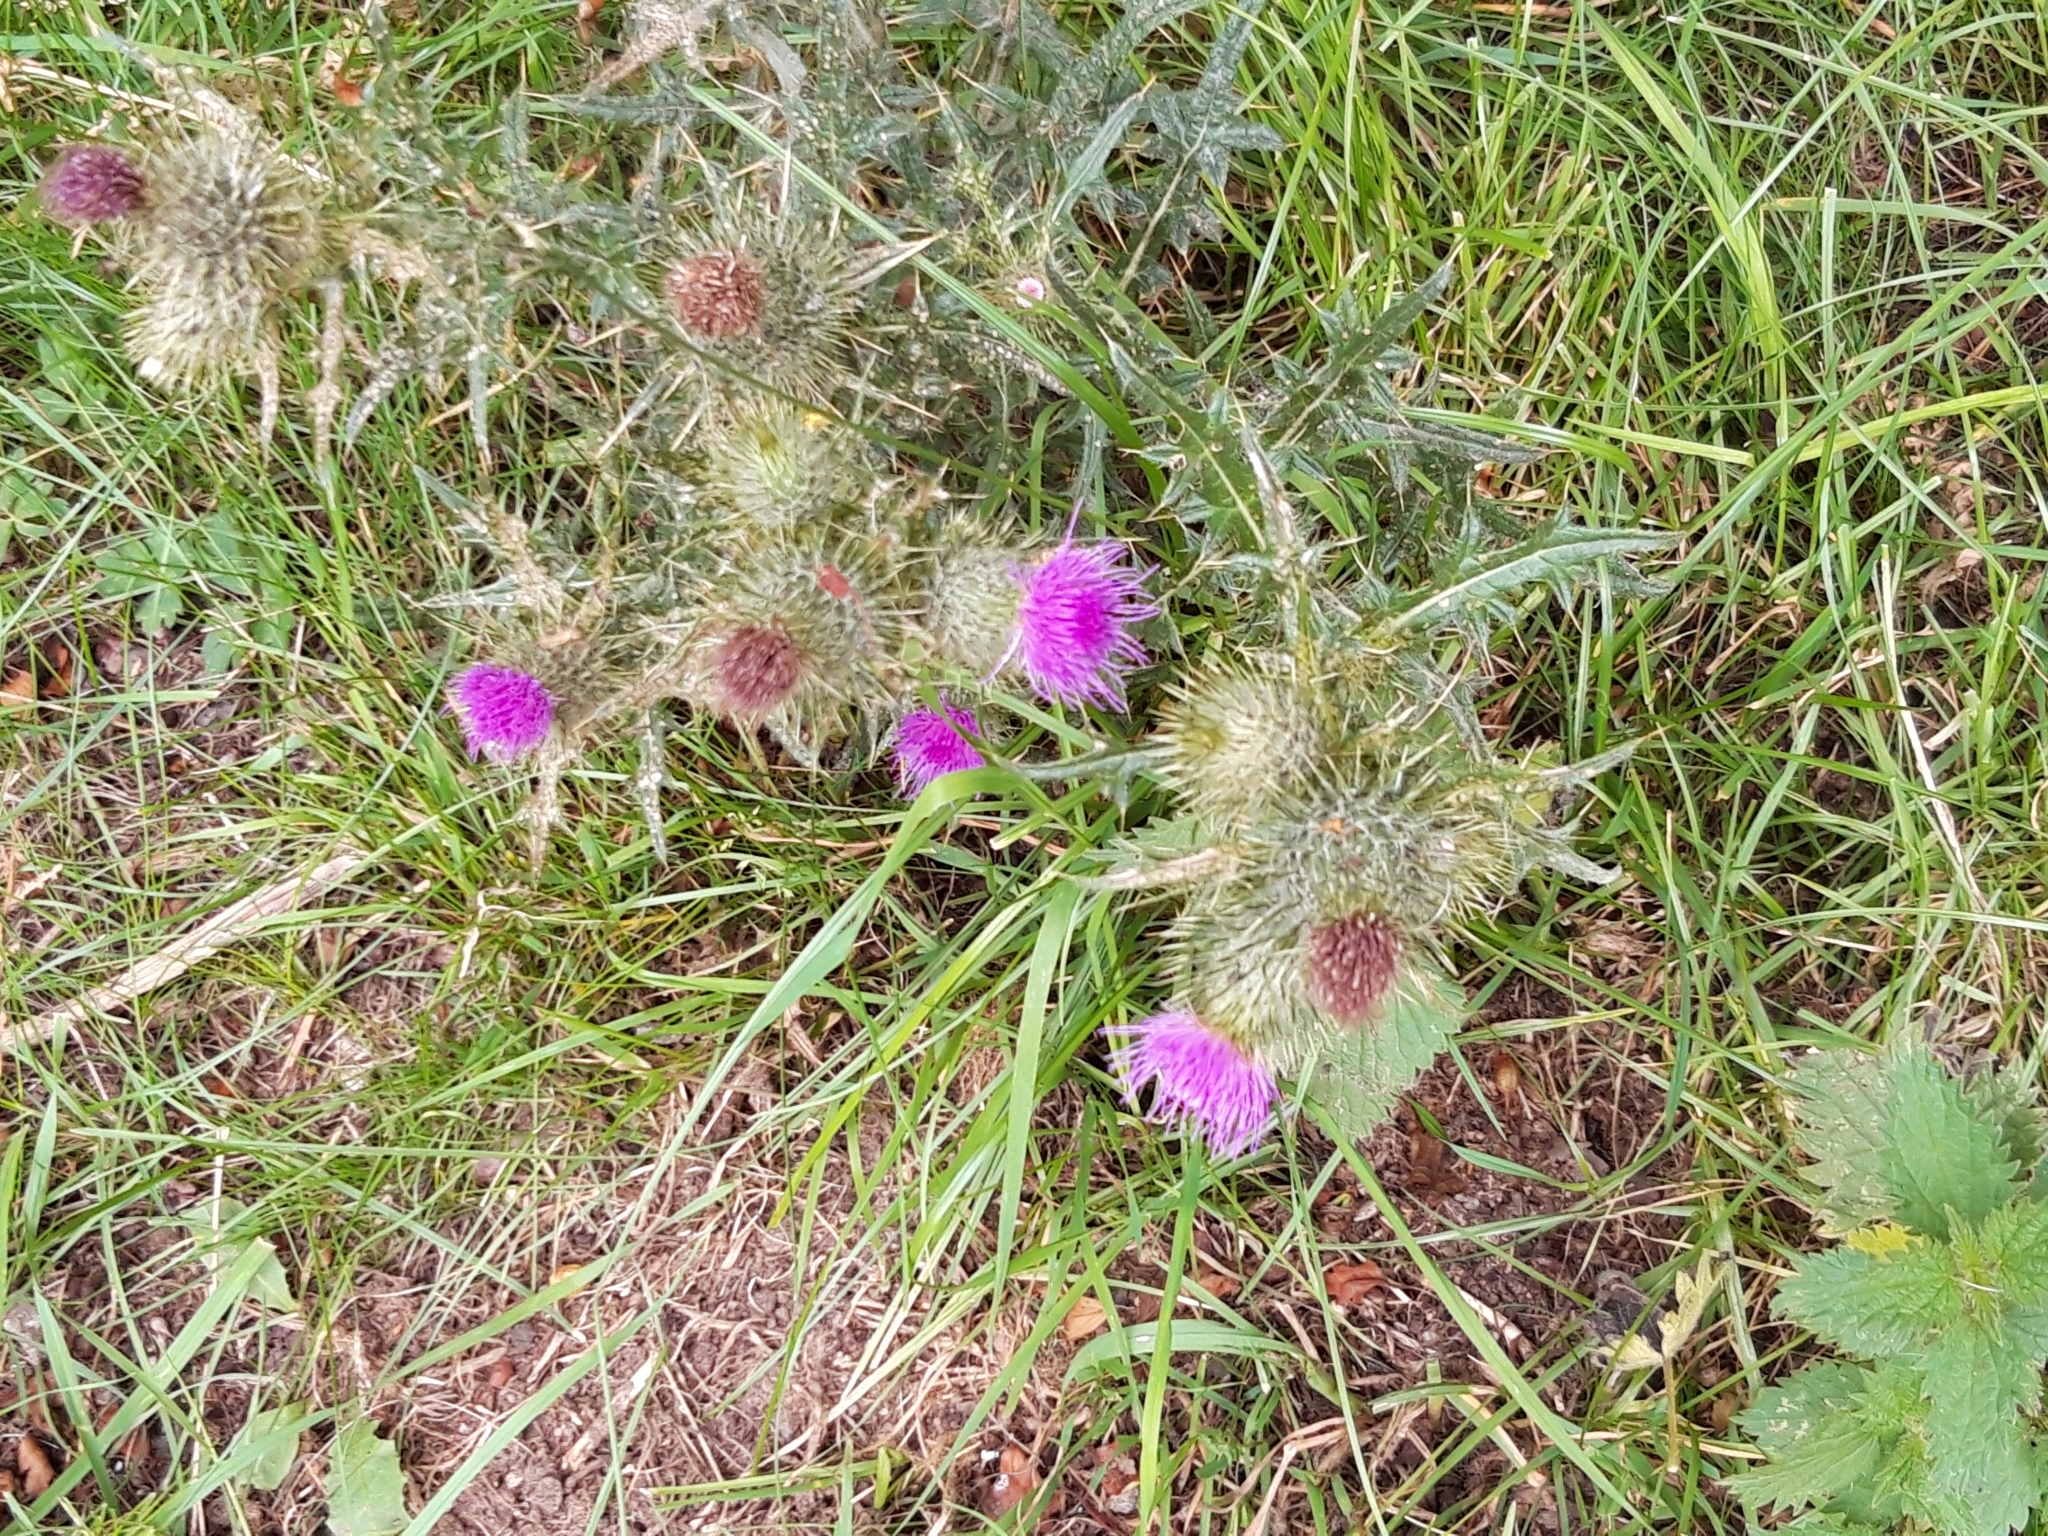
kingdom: Plantae
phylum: Tracheophyta
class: Magnoliopsida
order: Asterales
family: Asteraceae
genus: Cirsium
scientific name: Cirsium vulgare
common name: Bull thistle
